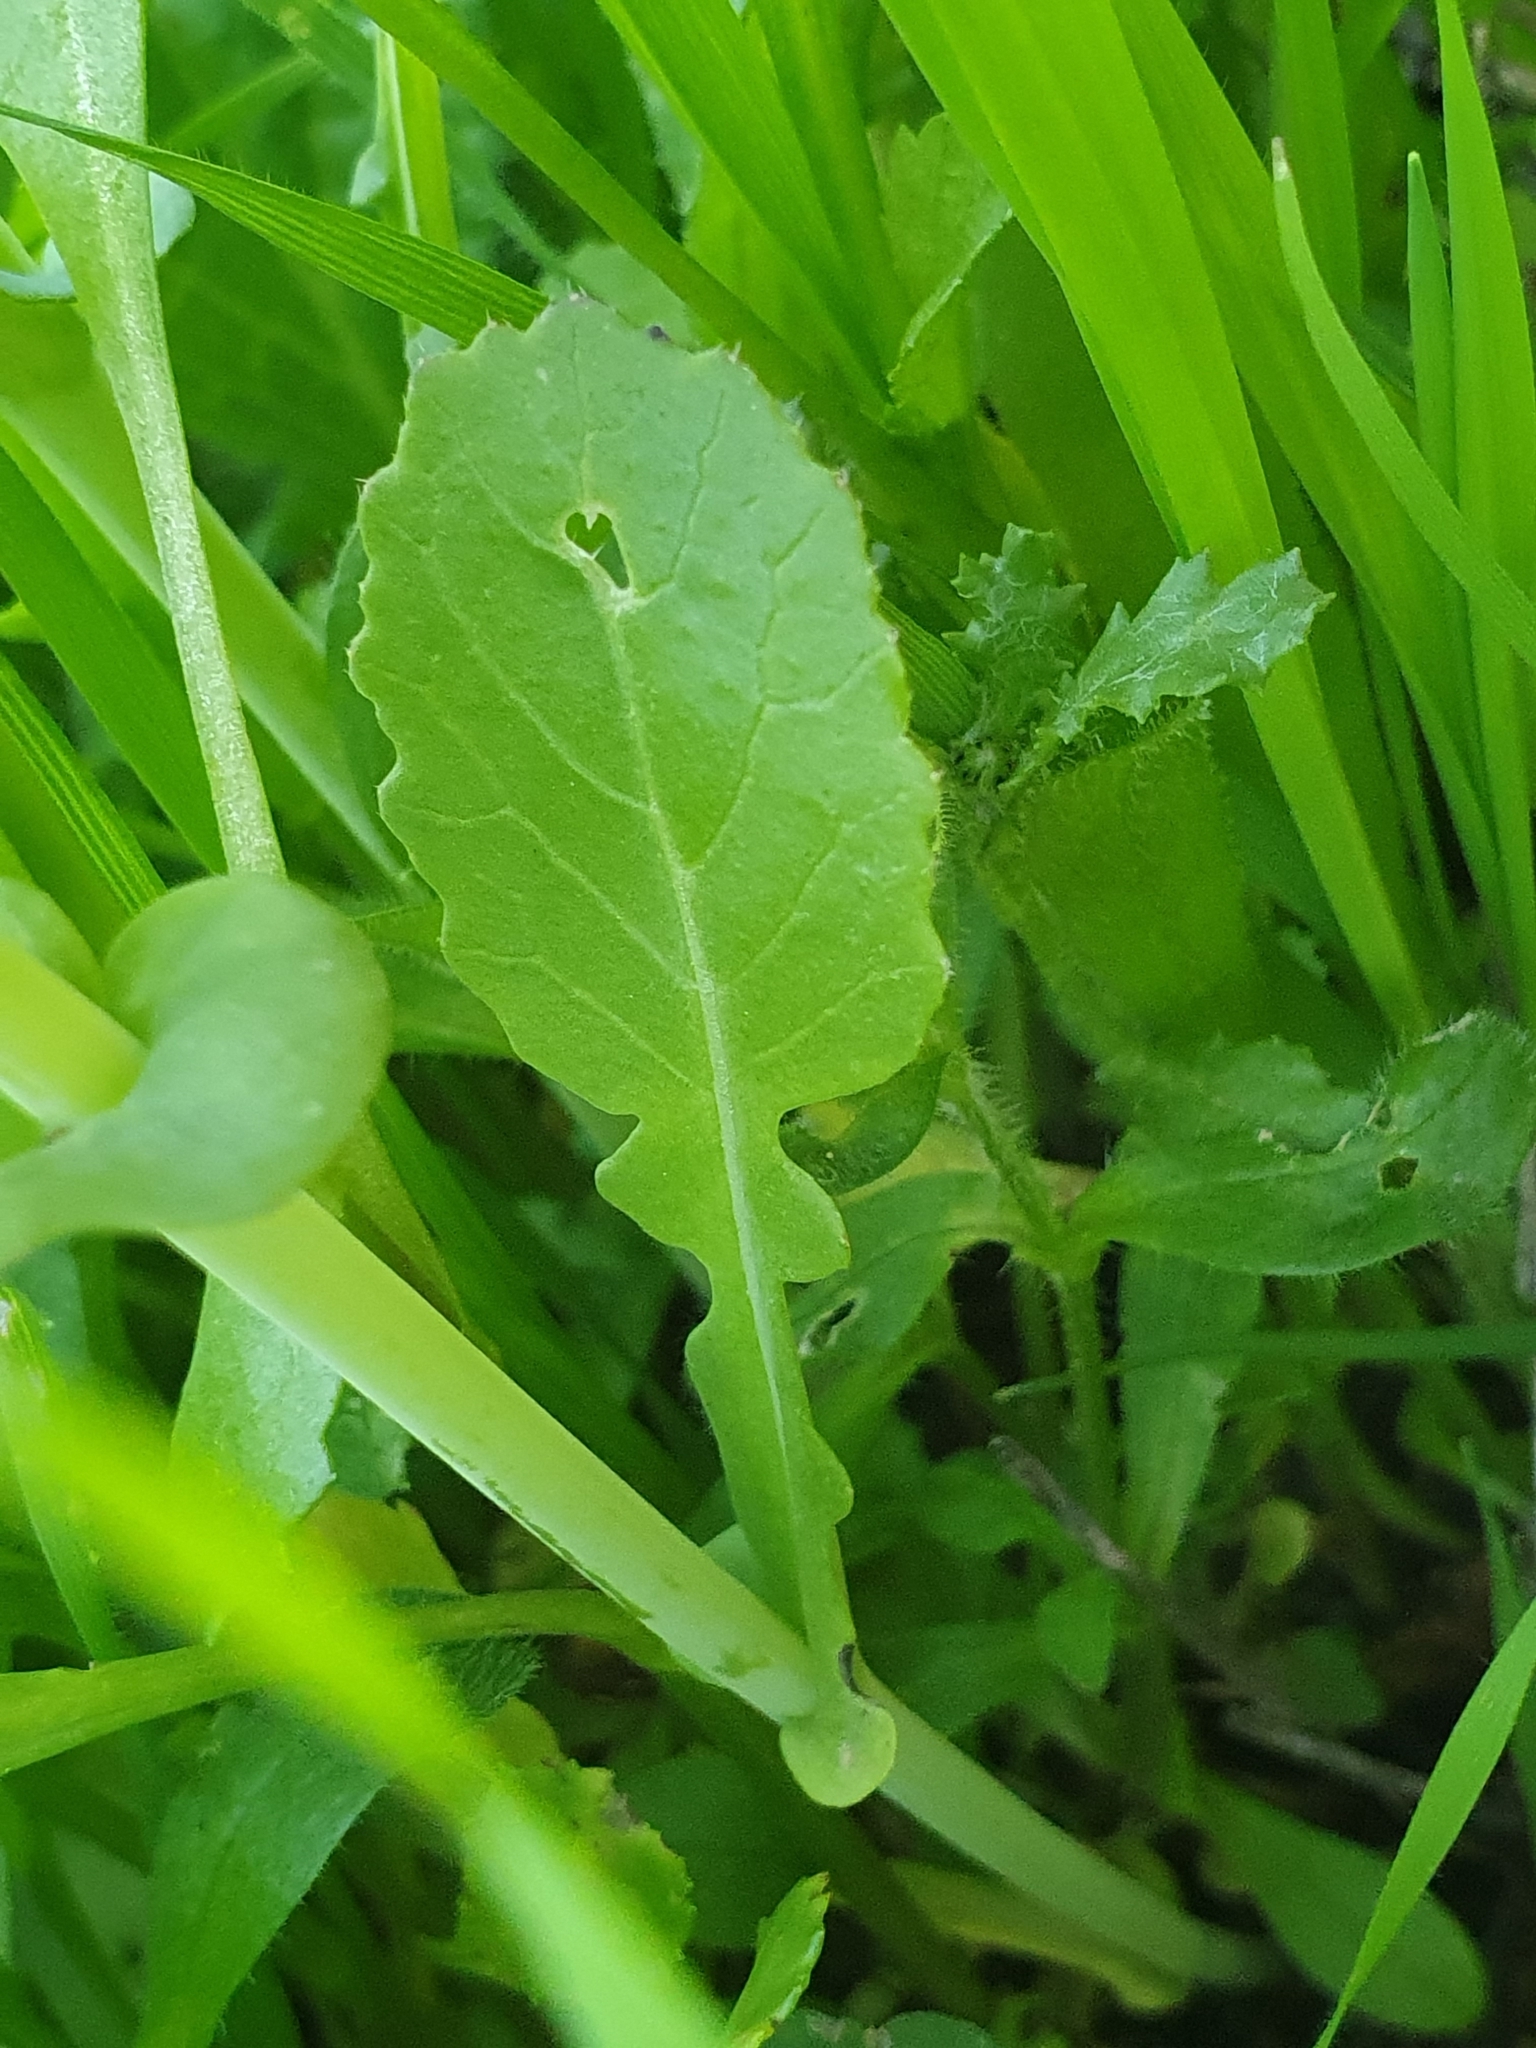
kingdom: Plantae
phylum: Tracheophyta
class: Magnoliopsida
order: Brassicales
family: Brassicaceae
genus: Brassica
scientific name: Brassica rapa
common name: Field mustard
